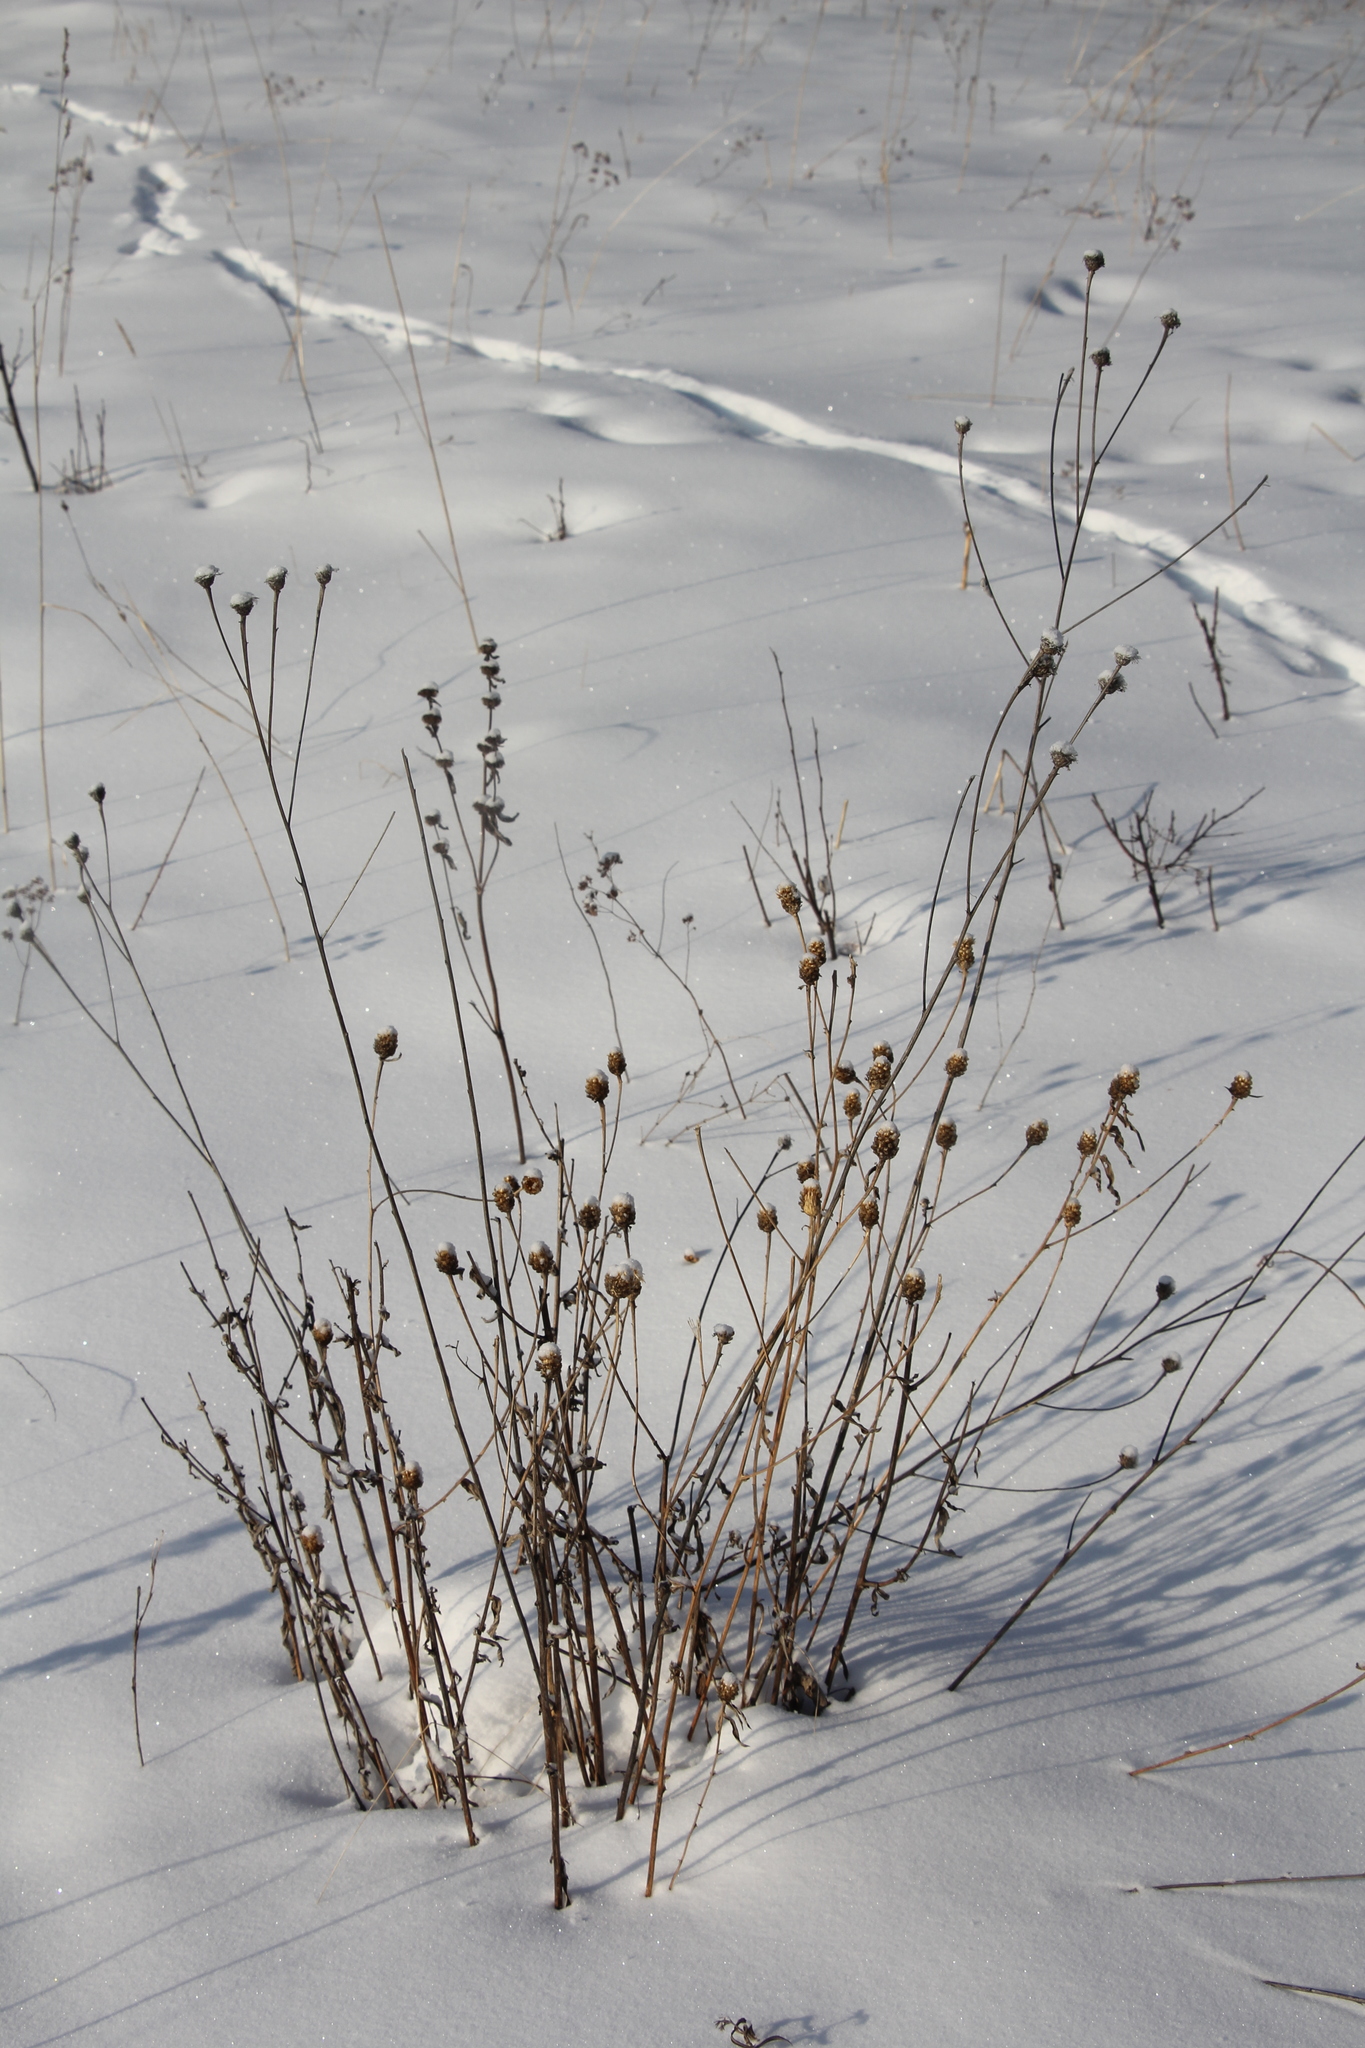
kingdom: Plantae
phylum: Tracheophyta
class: Magnoliopsida
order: Asterales
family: Asteraceae
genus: Centaurea
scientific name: Centaurea scabiosa
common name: Greater knapweed
